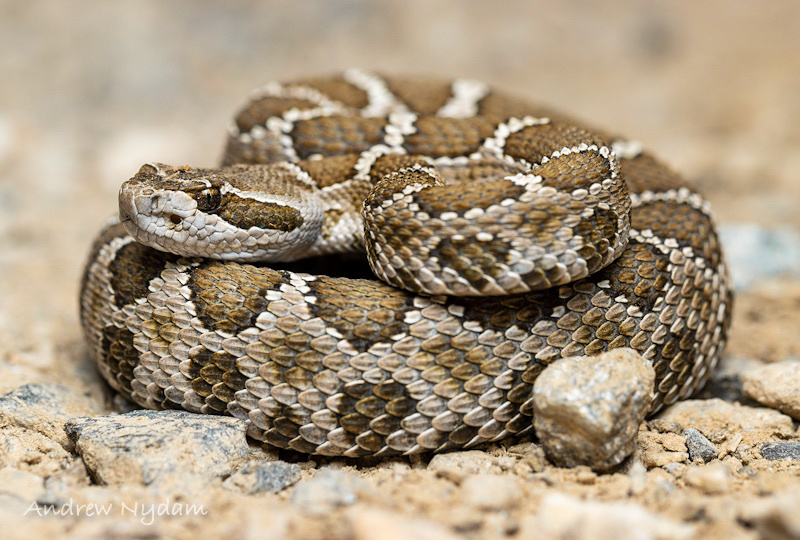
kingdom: Animalia
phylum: Chordata
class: Squamata
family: Viperidae
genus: Crotalus
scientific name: Crotalus oreganus
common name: Abyssus
